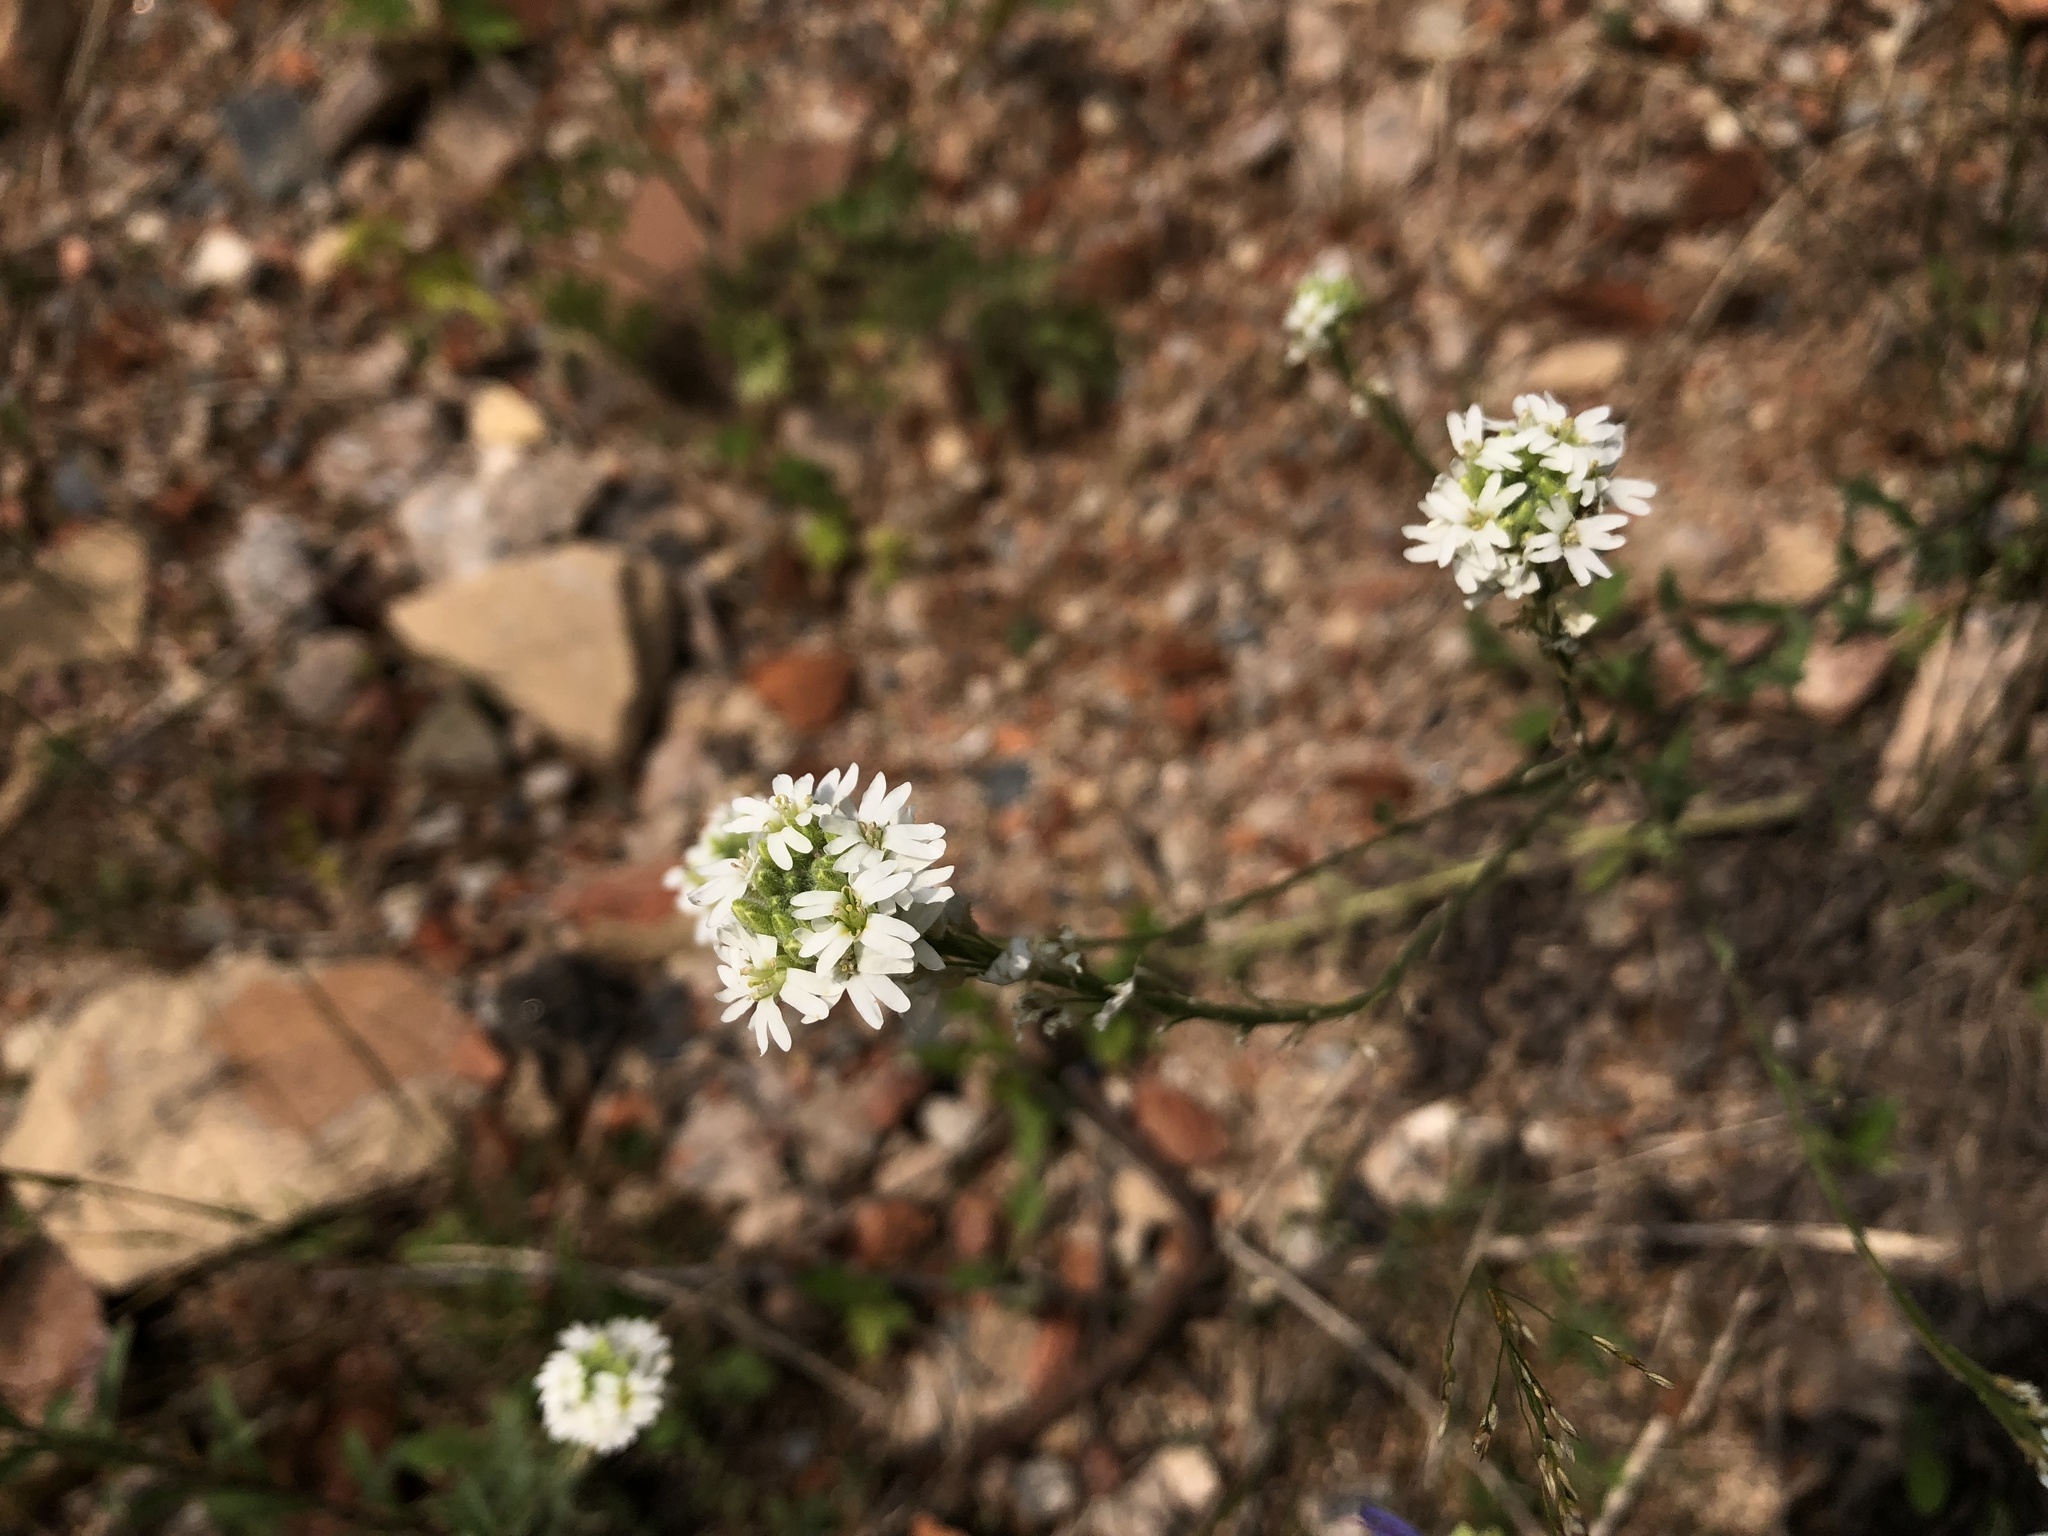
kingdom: Plantae
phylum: Tracheophyta
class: Magnoliopsida
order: Brassicales
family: Brassicaceae
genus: Berteroa
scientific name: Berteroa incana
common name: Hoary alison
